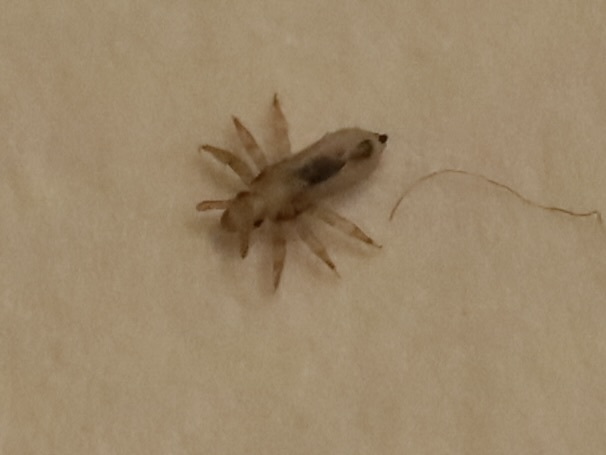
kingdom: Animalia
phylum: Arthropoda
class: Insecta
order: Psocodea
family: Pediculidae
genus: Pediculus
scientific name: Pediculus humanus
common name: Body louse
